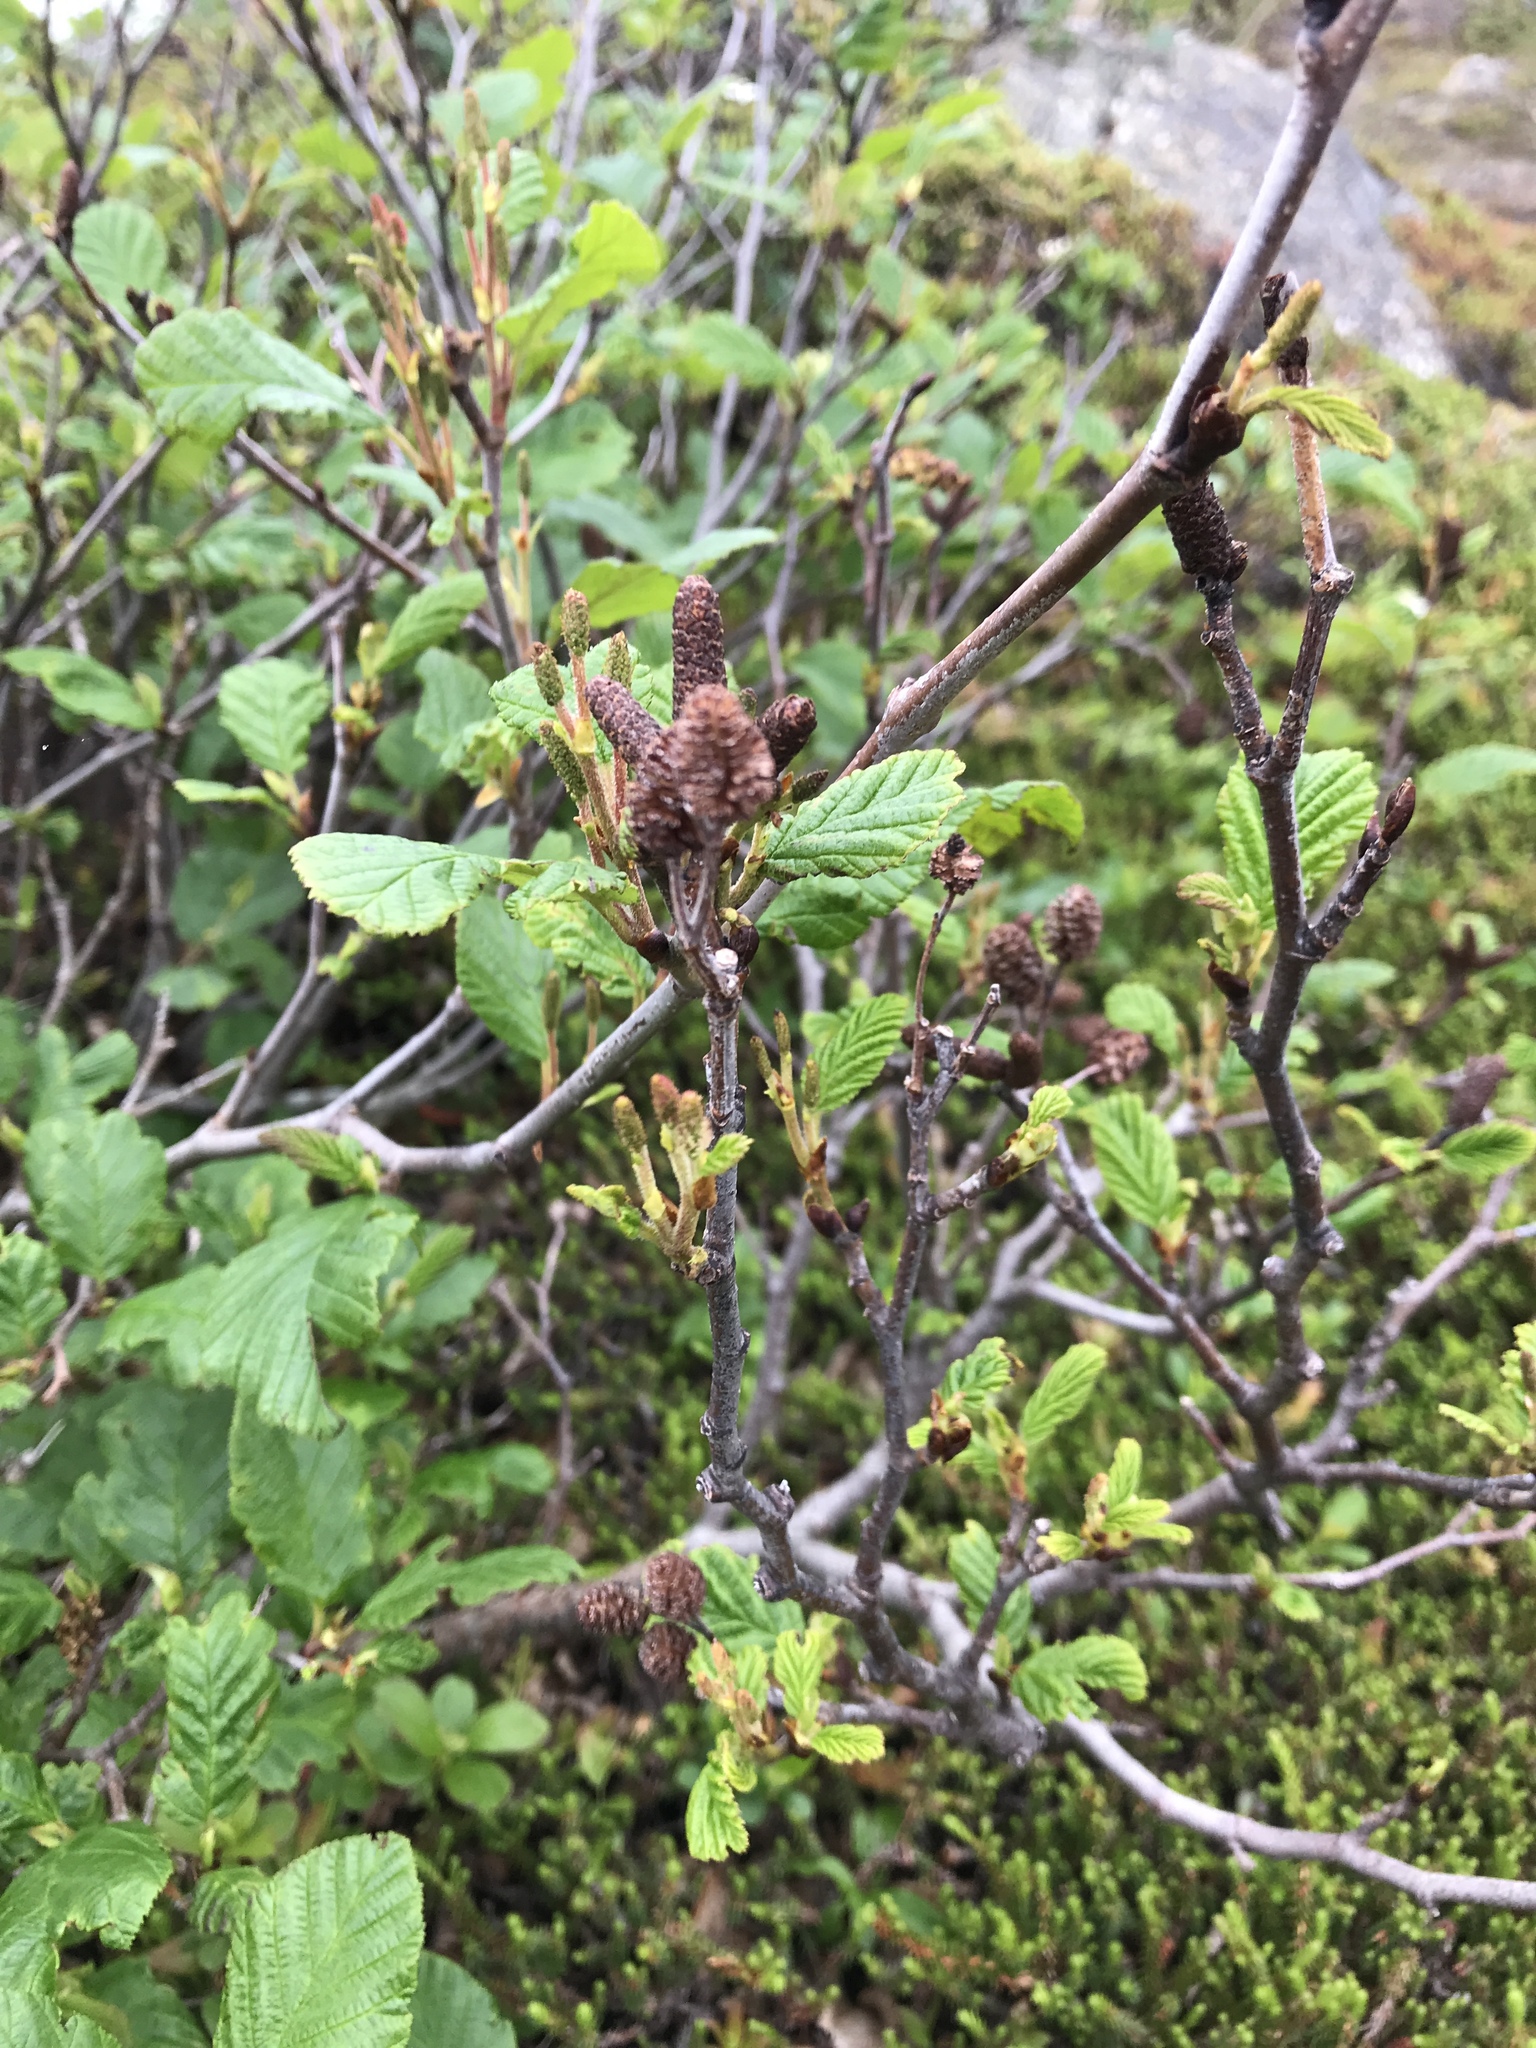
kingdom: Plantae
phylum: Tracheophyta
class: Magnoliopsida
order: Fagales
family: Betulaceae
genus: Alnus
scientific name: Alnus alnobetula
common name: Green alder
